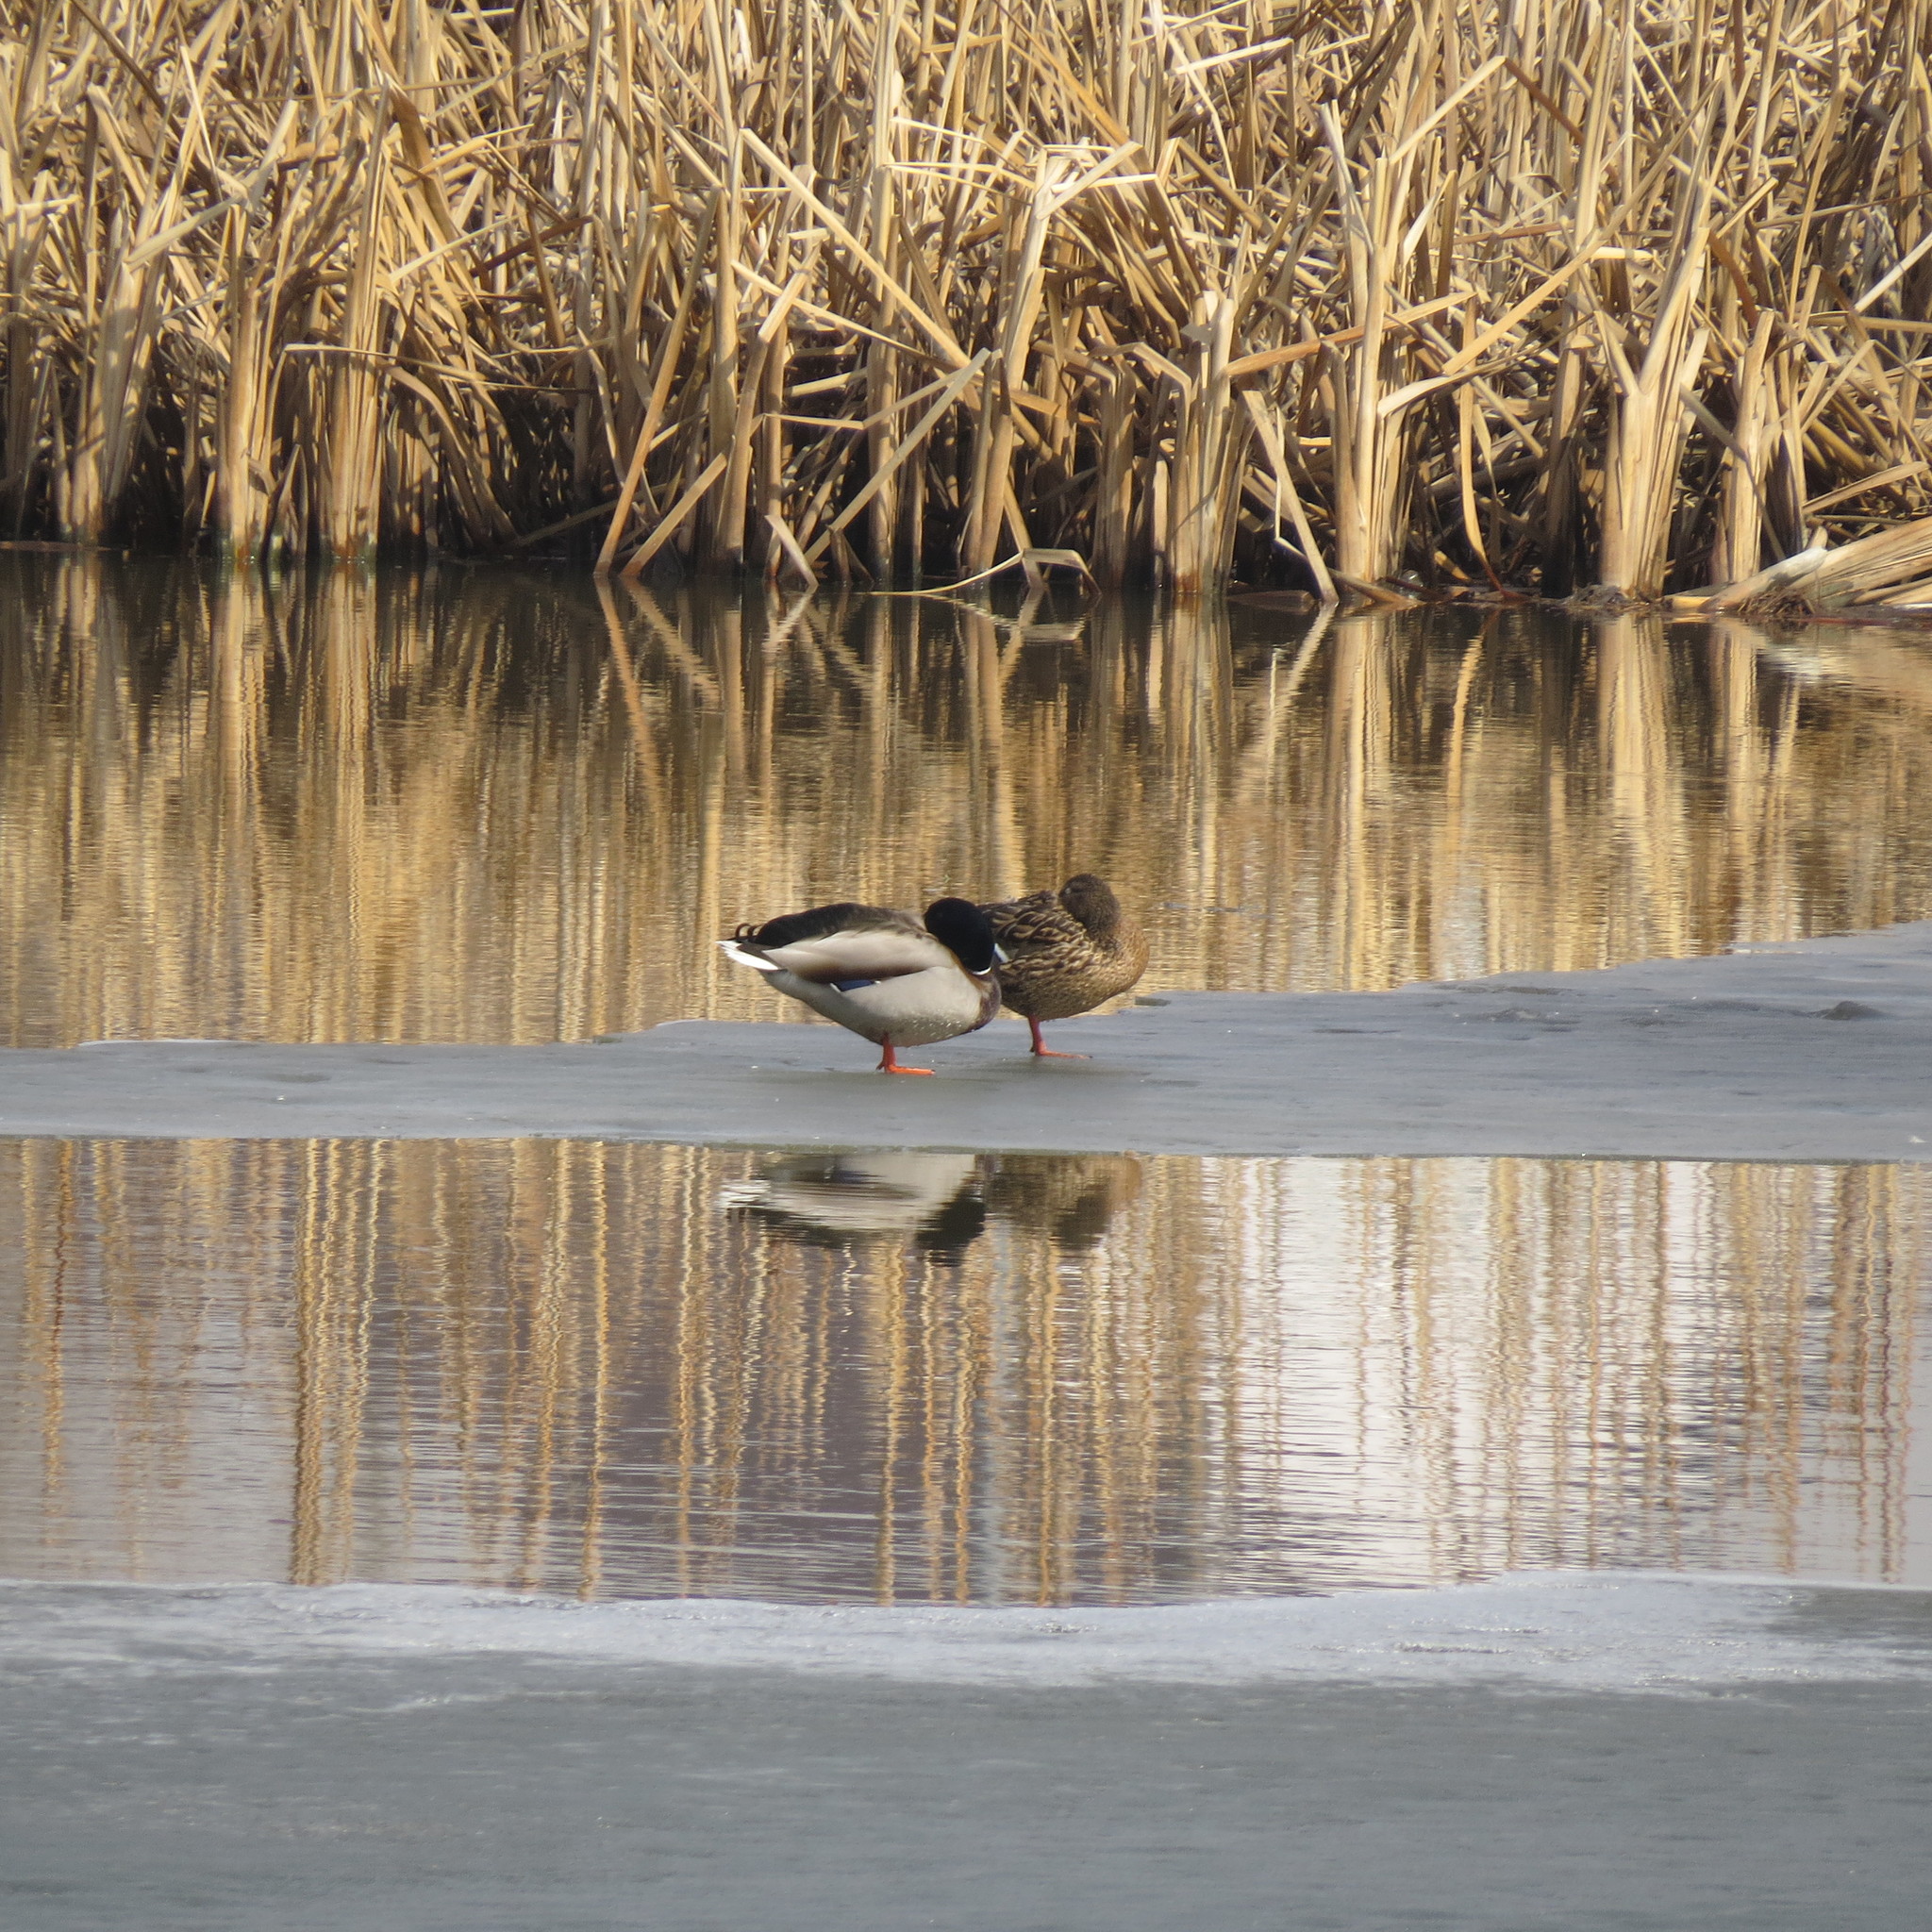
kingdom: Animalia
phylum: Chordata
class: Aves
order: Anseriformes
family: Anatidae
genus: Anas
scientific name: Anas platyrhynchos
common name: Mallard
